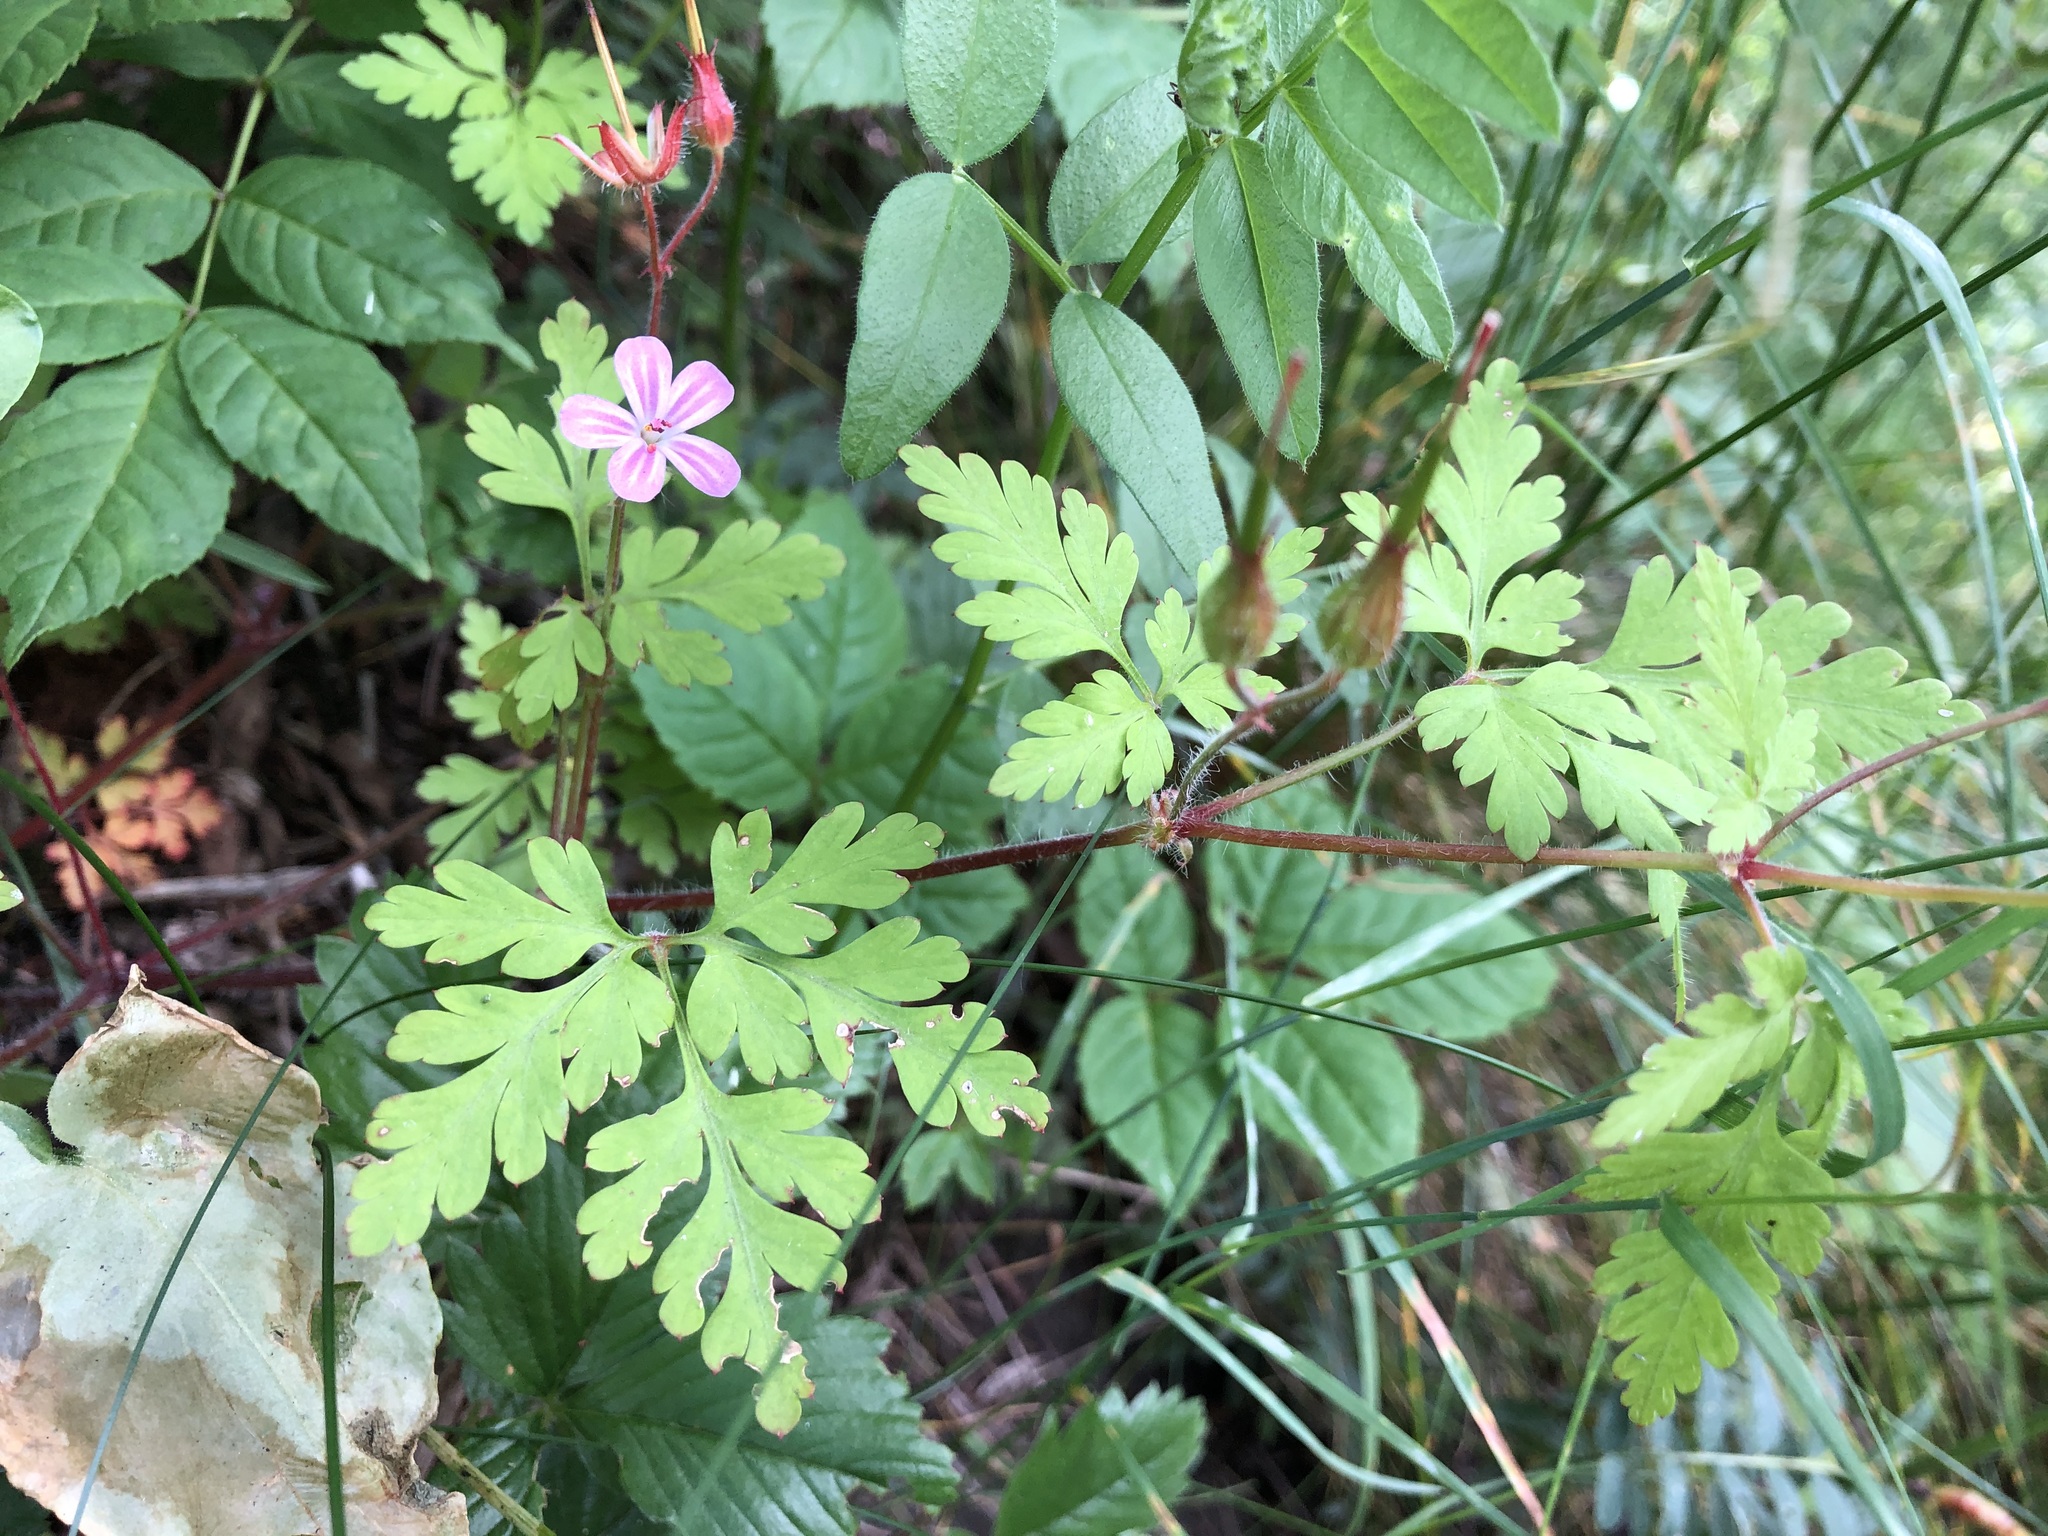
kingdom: Plantae
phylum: Tracheophyta
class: Magnoliopsida
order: Geraniales
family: Geraniaceae
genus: Geranium
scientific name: Geranium robertianum
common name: Herb-robert
